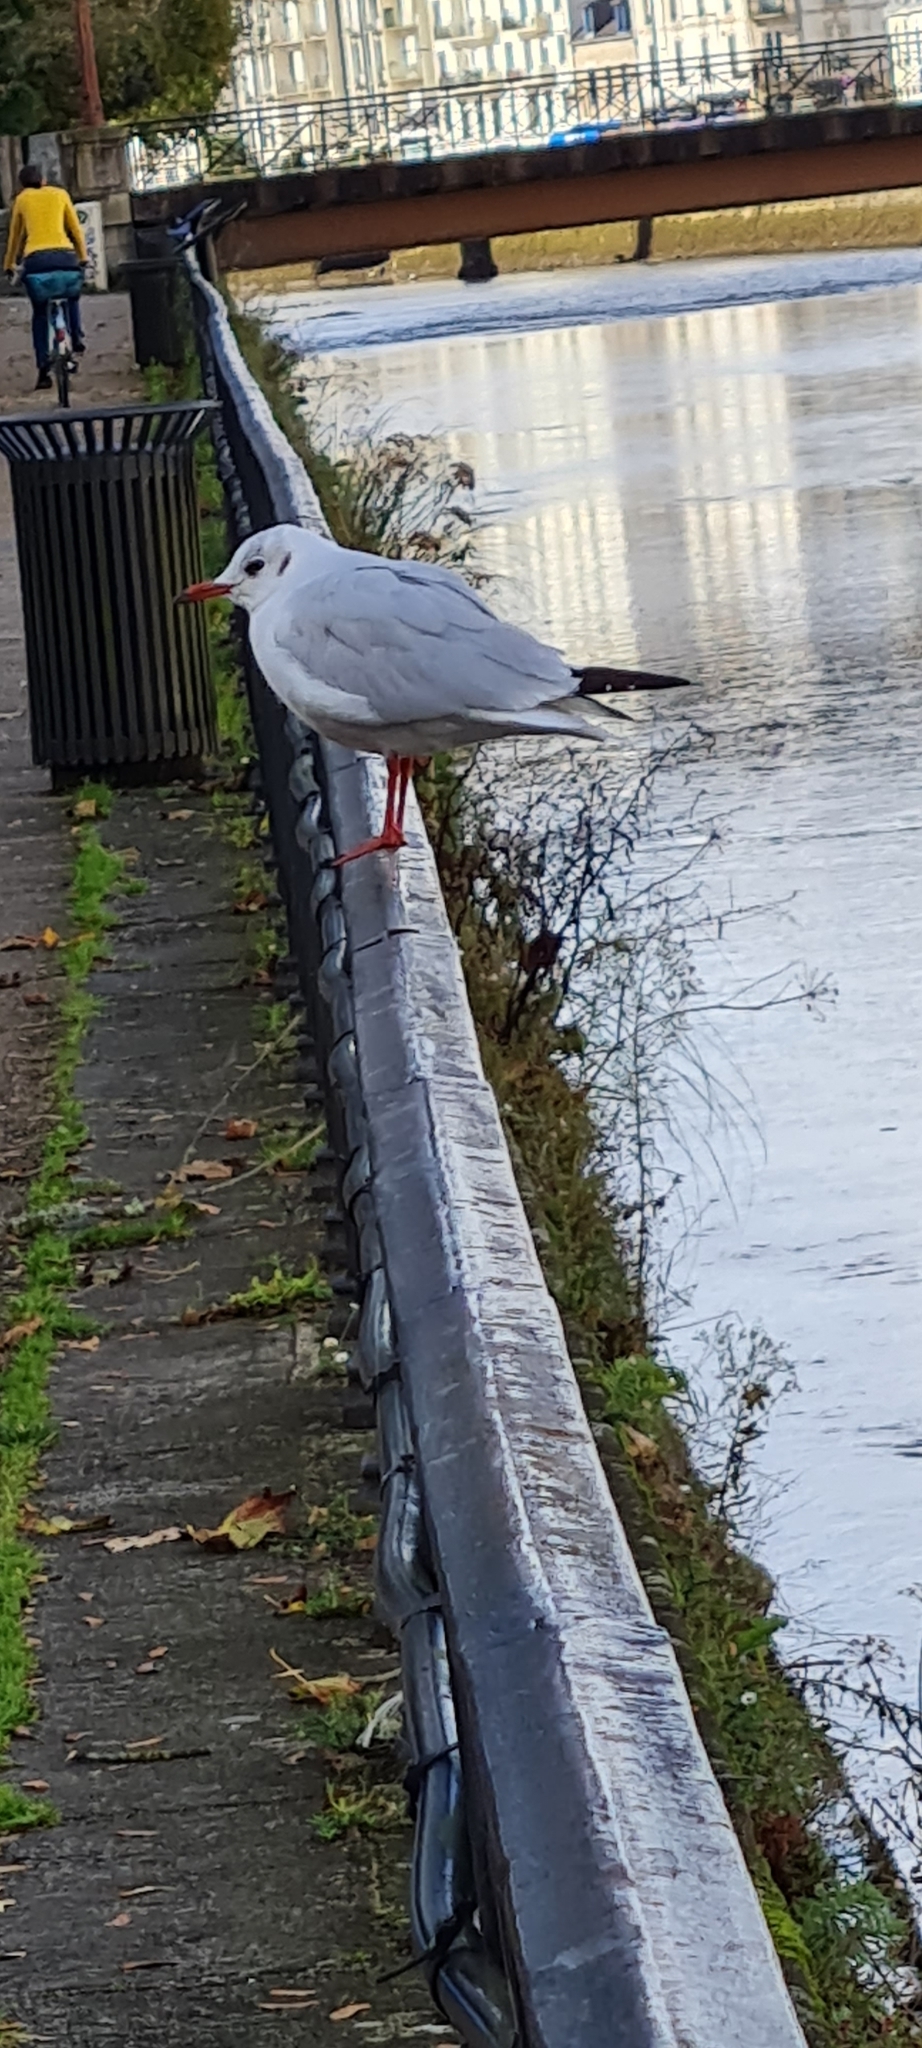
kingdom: Animalia
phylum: Chordata
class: Aves
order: Charadriiformes
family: Laridae
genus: Chroicocephalus
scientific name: Chroicocephalus ridibundus
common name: Black-headed gull
